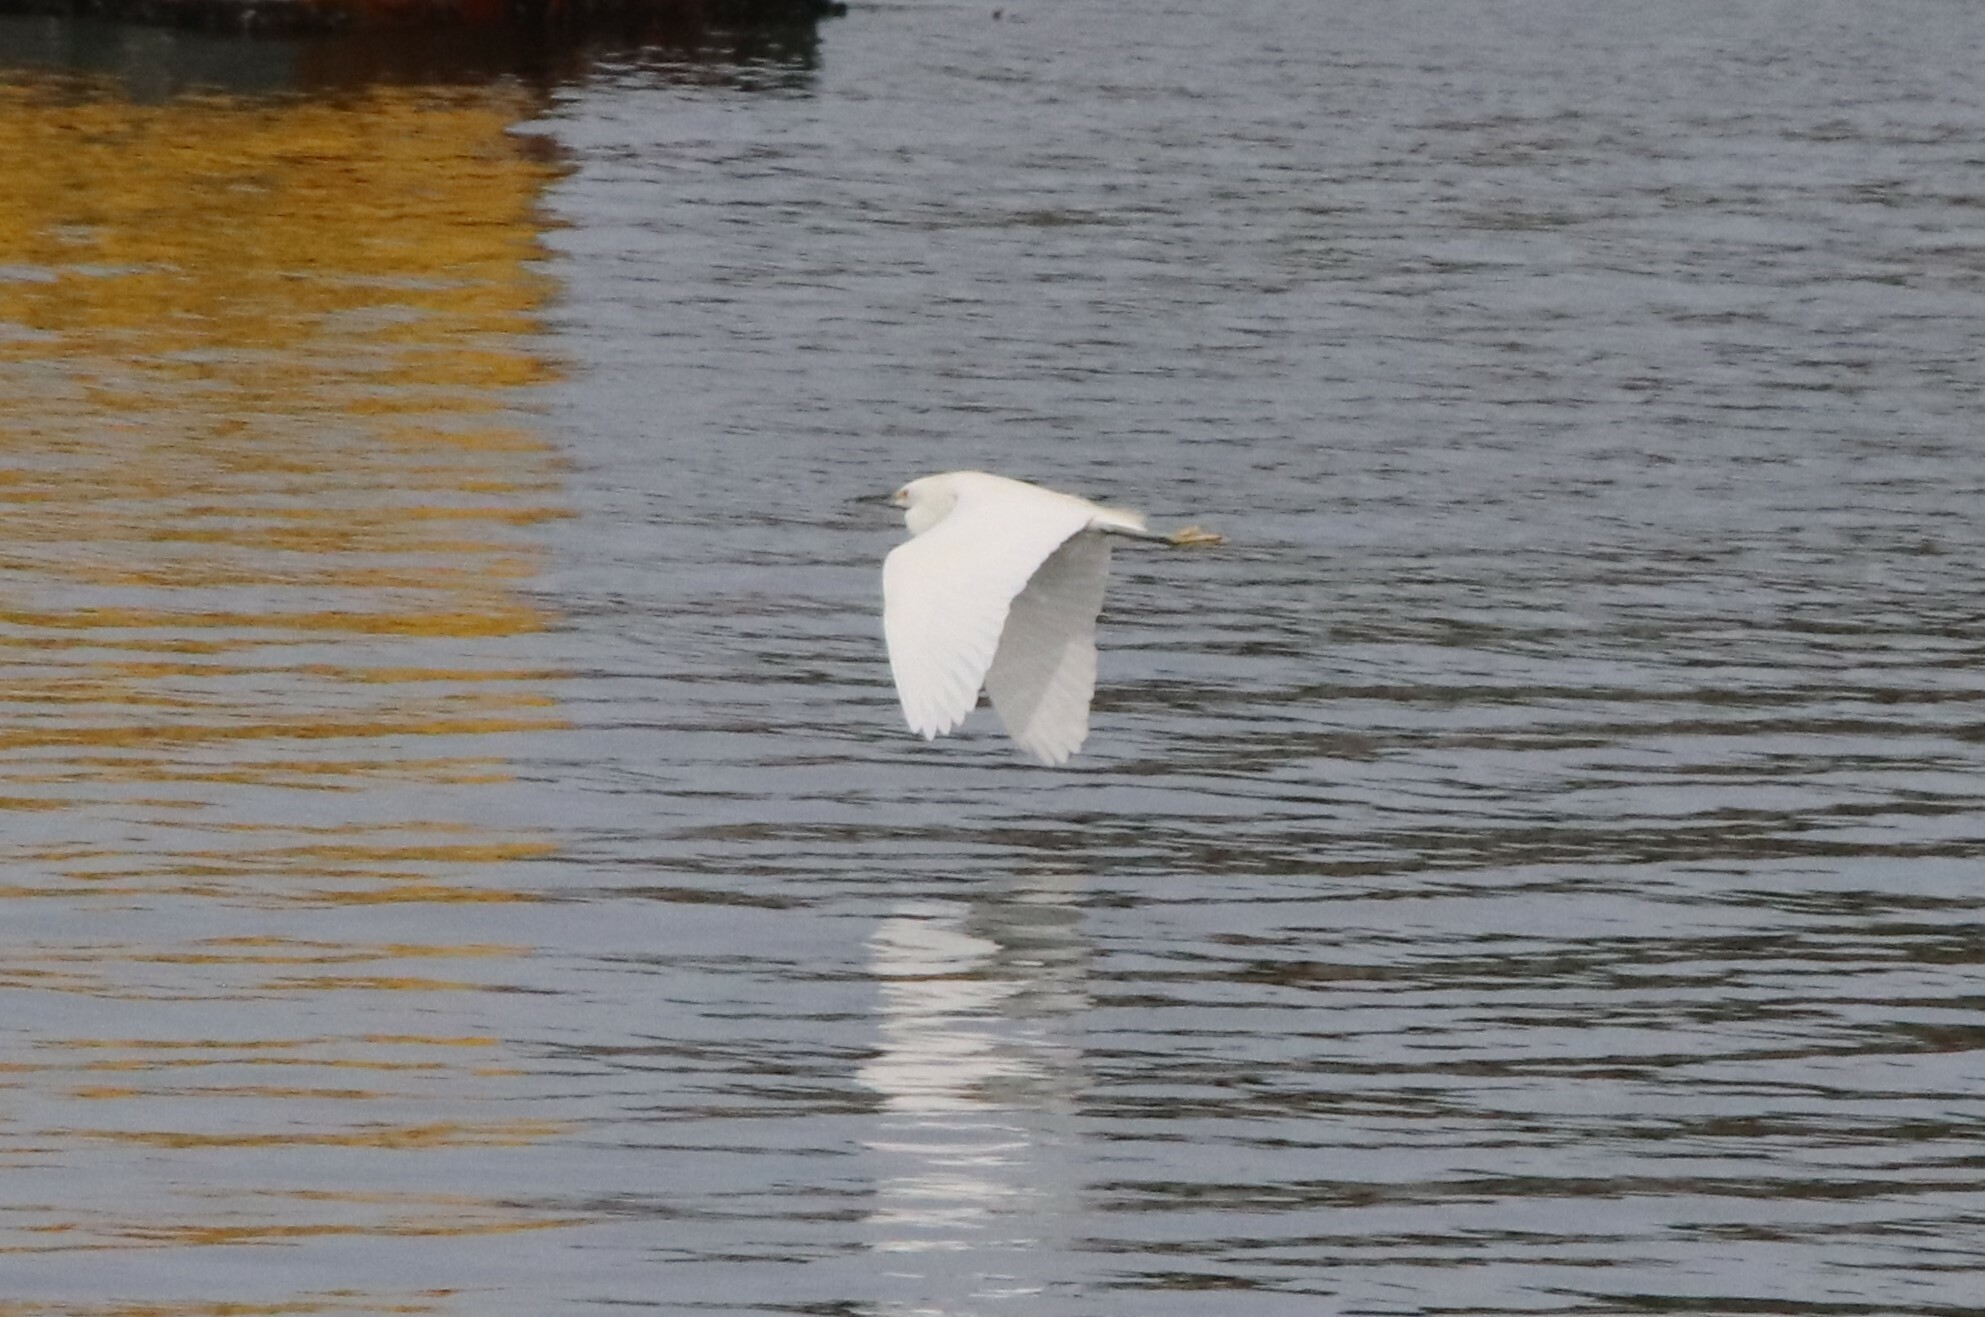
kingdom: Animalia
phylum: Chordata
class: Aves
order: Pelecaniformes
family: Ardeidae
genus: Egretta
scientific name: Egretta thula
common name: Snowy egret
